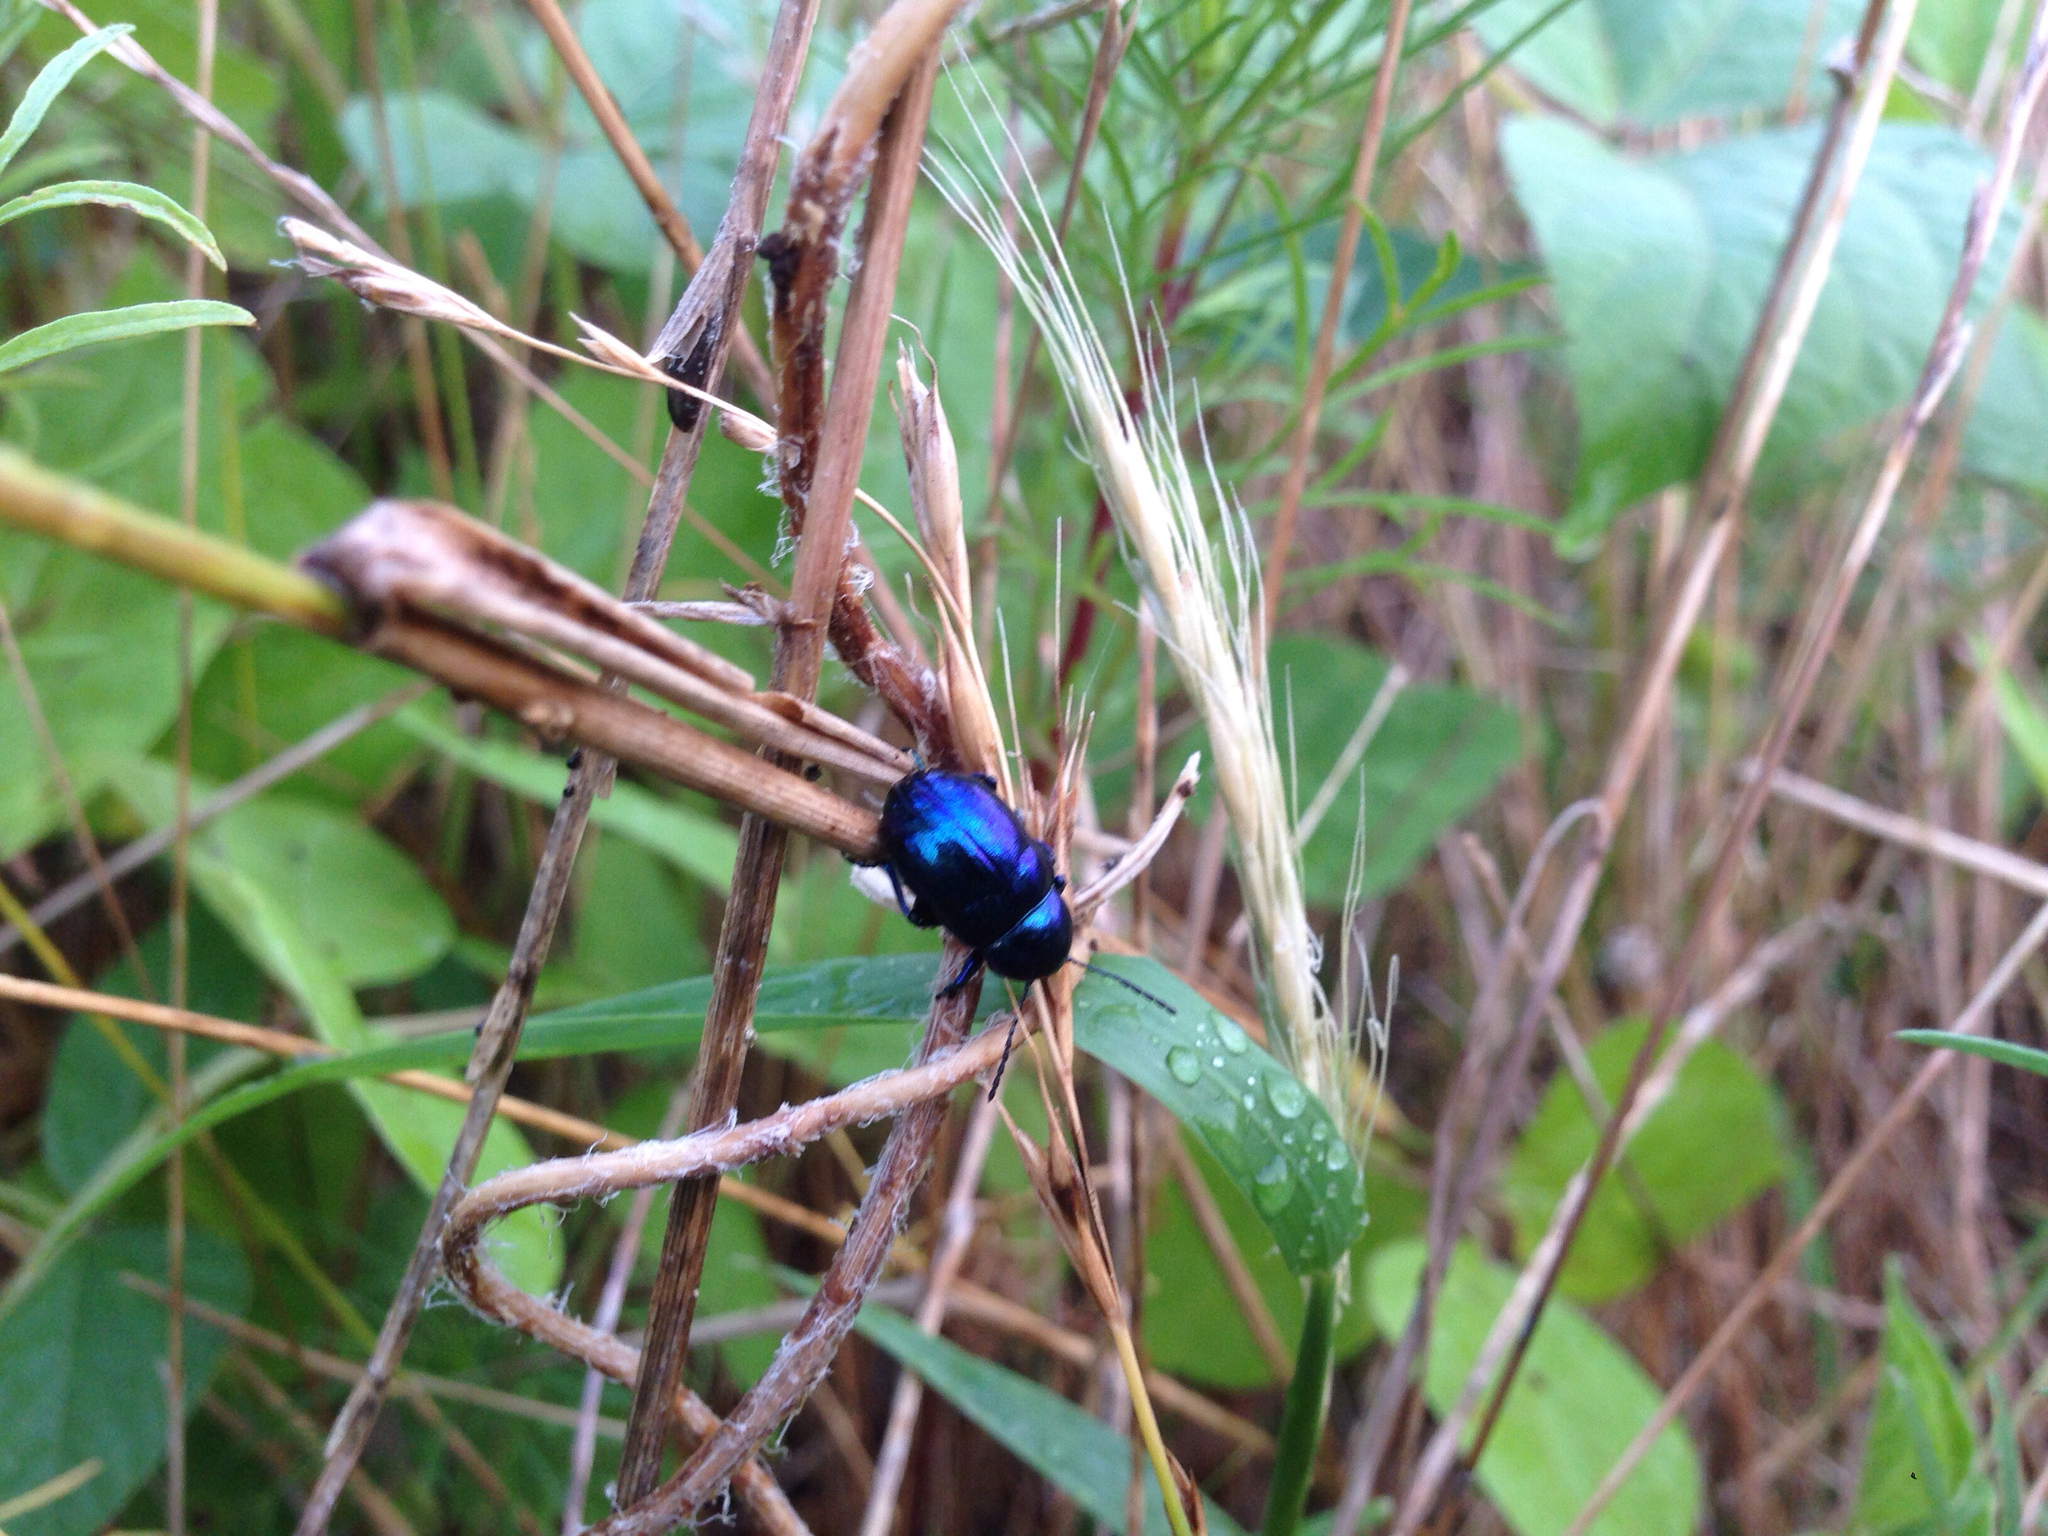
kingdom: Animalia
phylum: Arthropoda
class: Insecta
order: Coleoptera
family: Chrysomelidae
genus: Chrysochus
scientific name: Chrysochus chinensis
